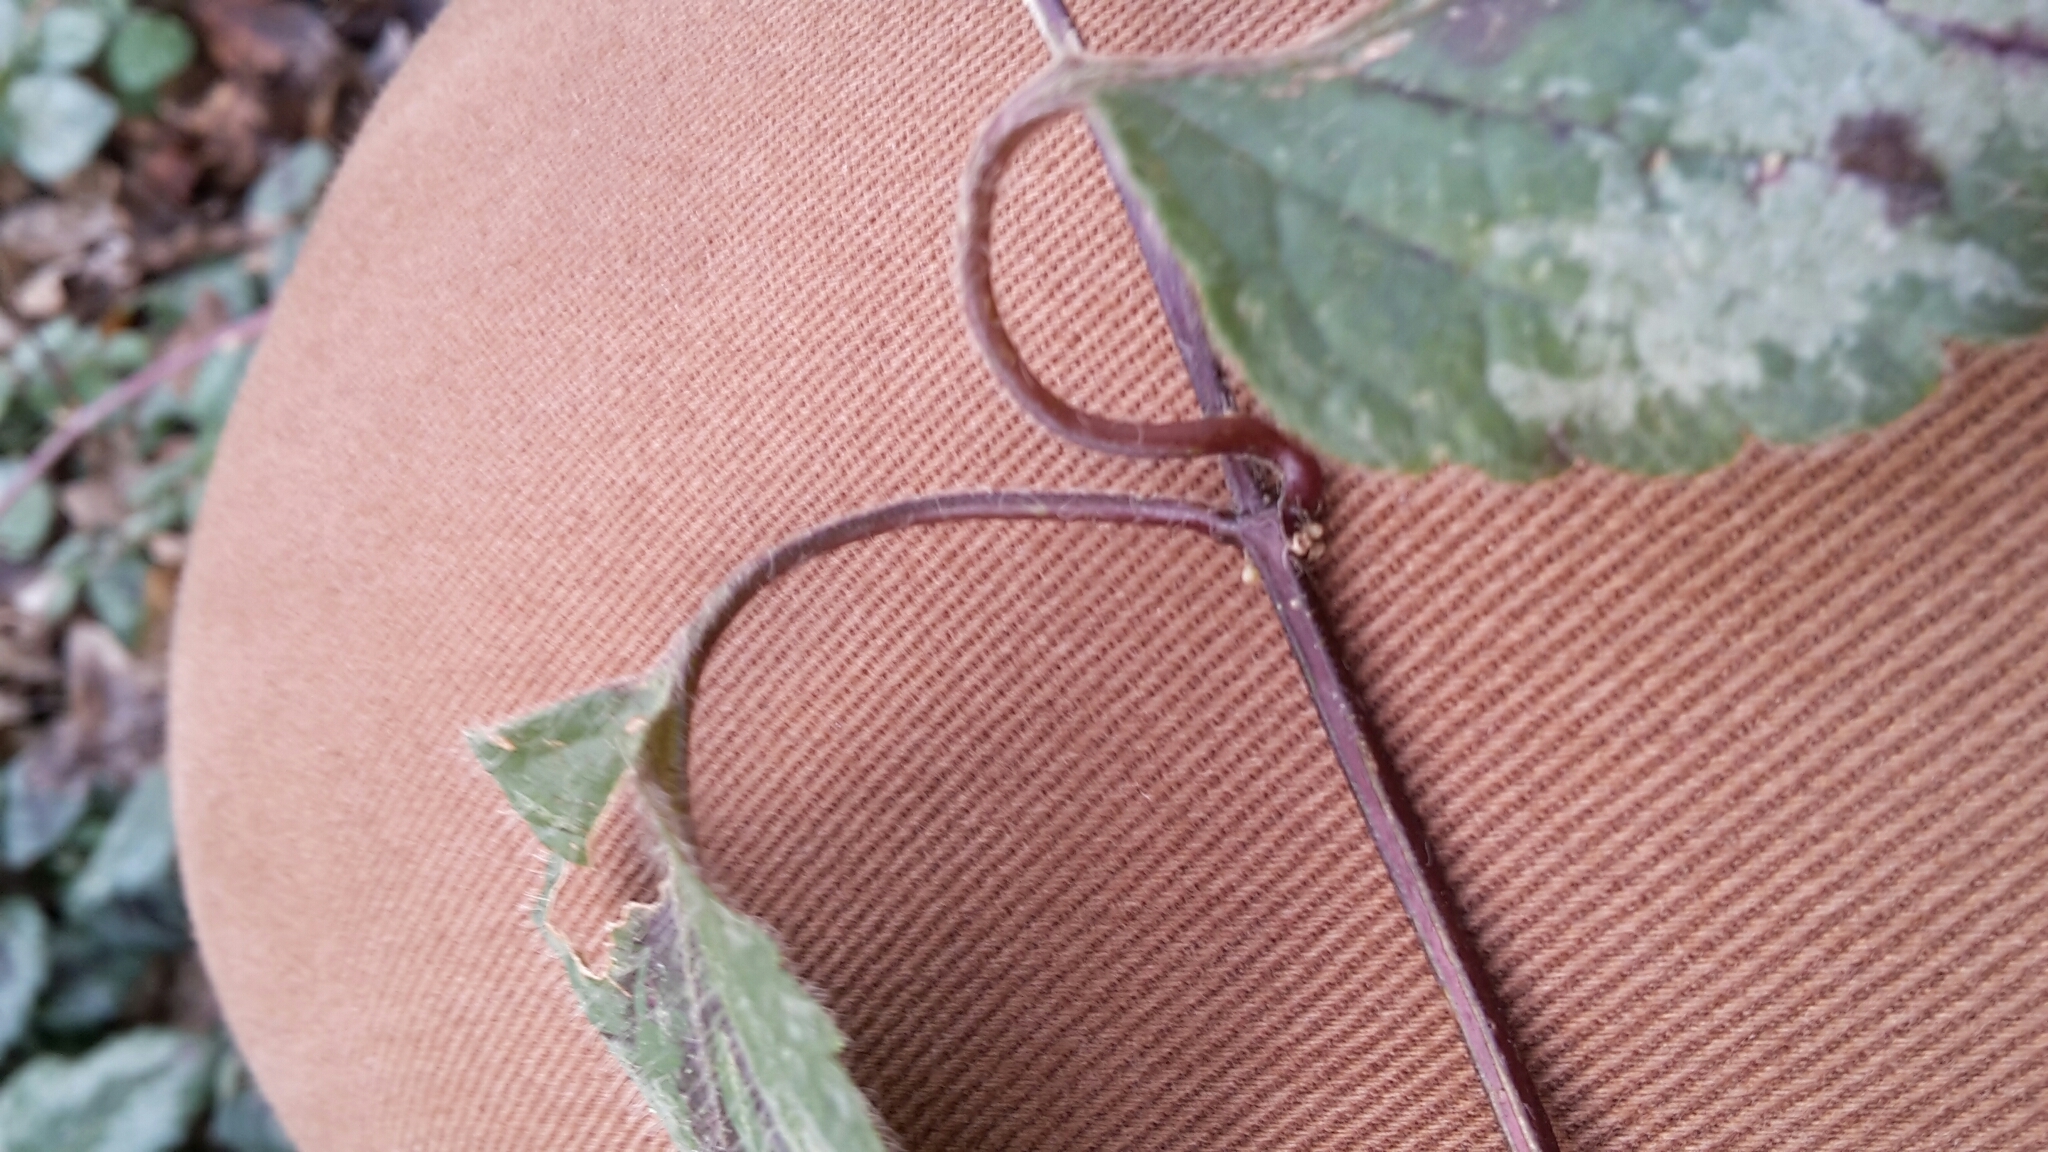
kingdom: Plantae
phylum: Tracheophyta
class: Magnoliopsida
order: Lamiales
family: Lamiaceae
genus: Lamium
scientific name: Lamium galeobdolon
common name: Yellow archangel
